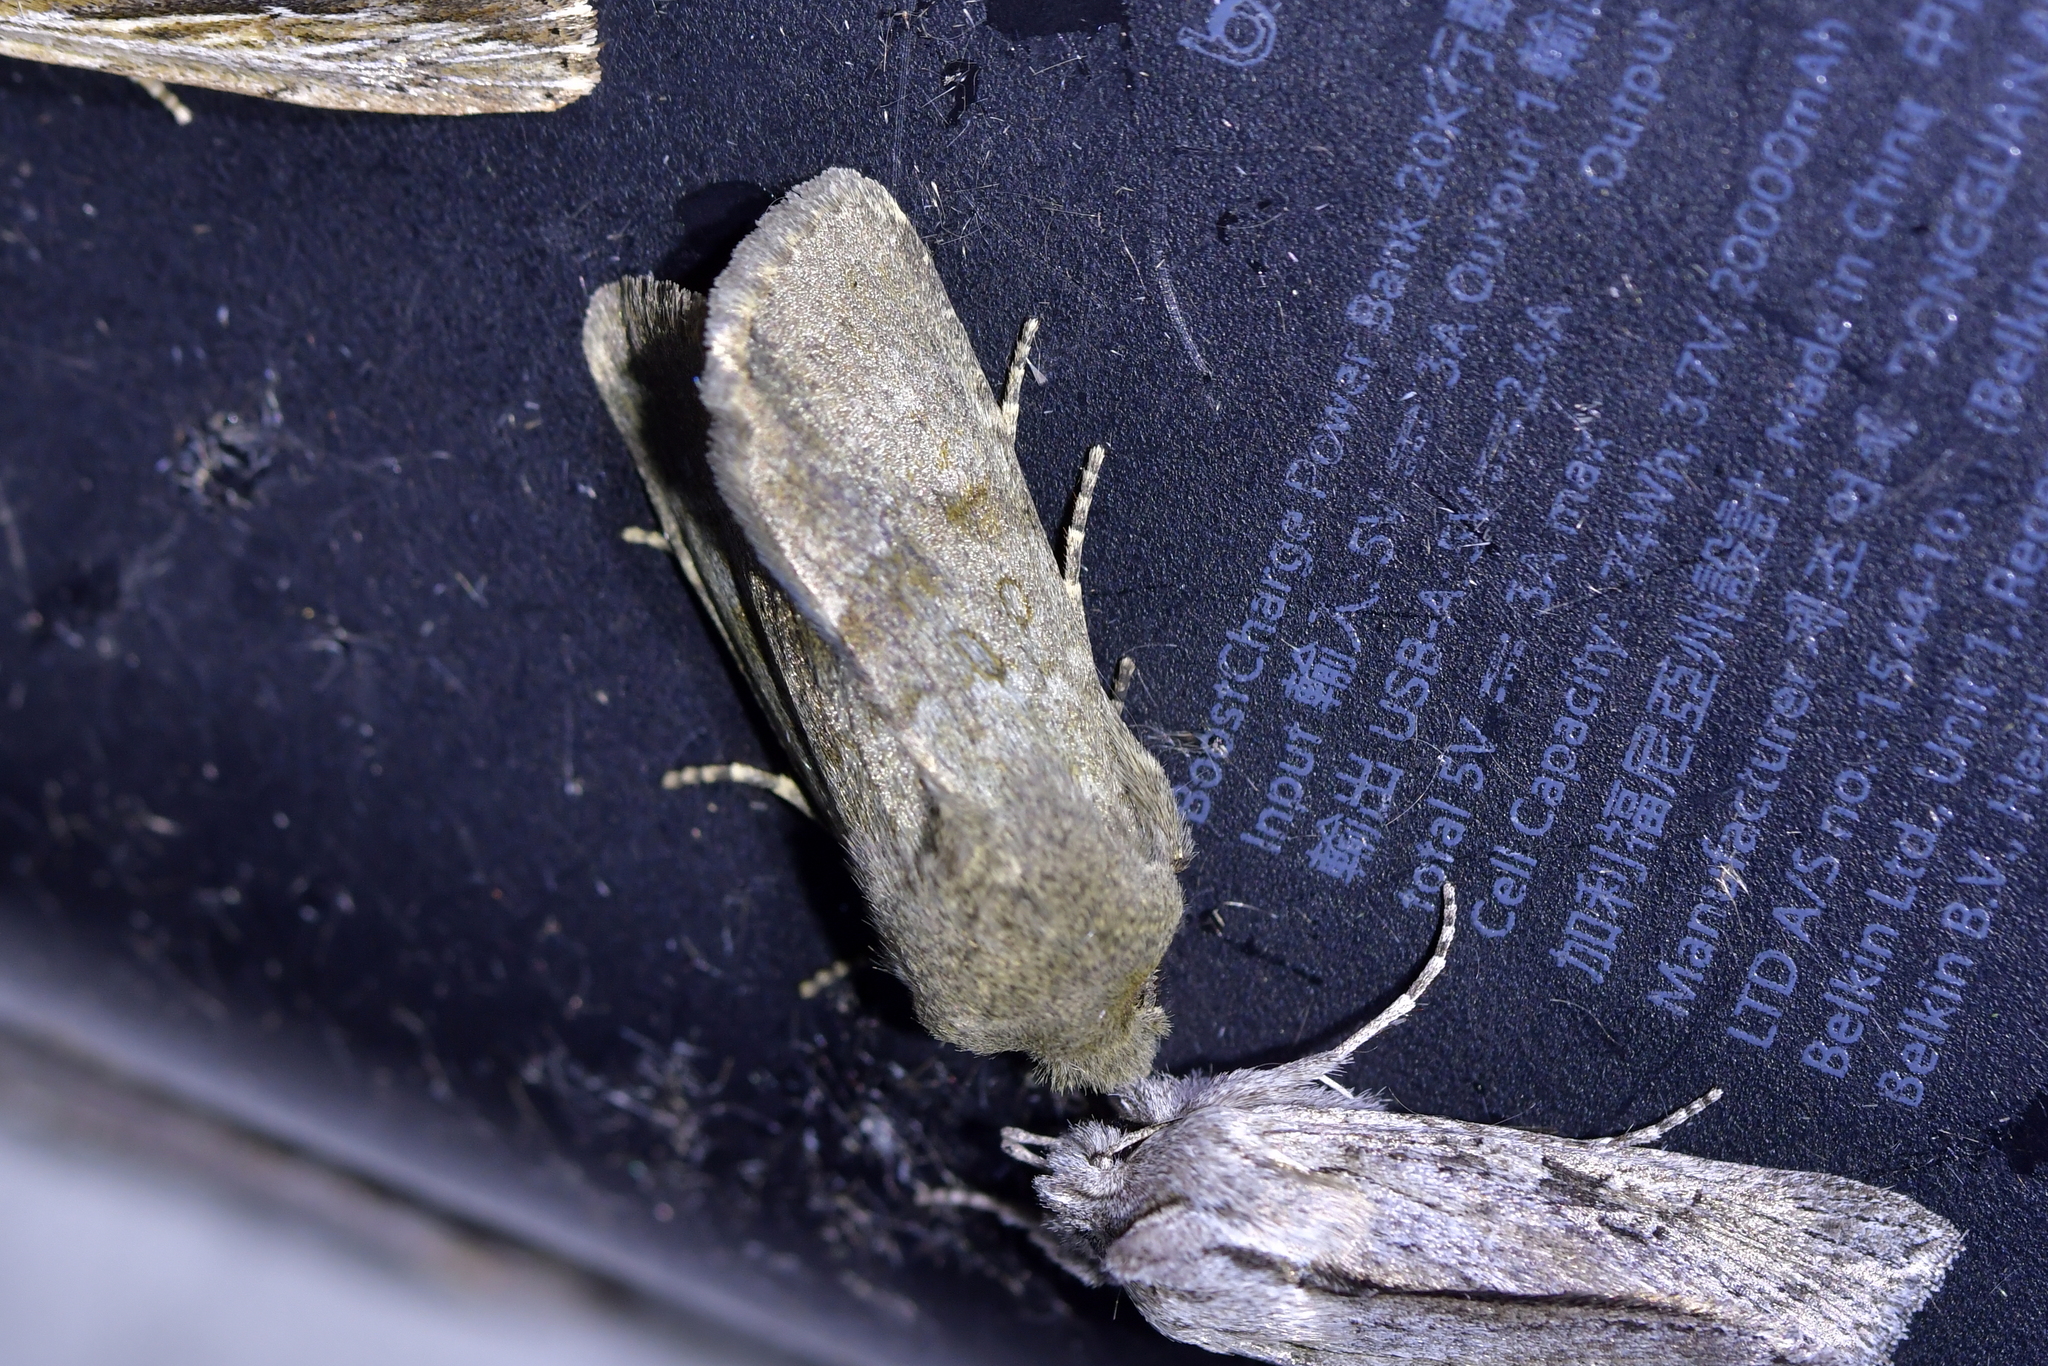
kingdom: Animalia
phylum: Arthropoda
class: Insecta
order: Lepidoptera
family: Noctuidae
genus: Ichneutica
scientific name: Ichneutica moderata
